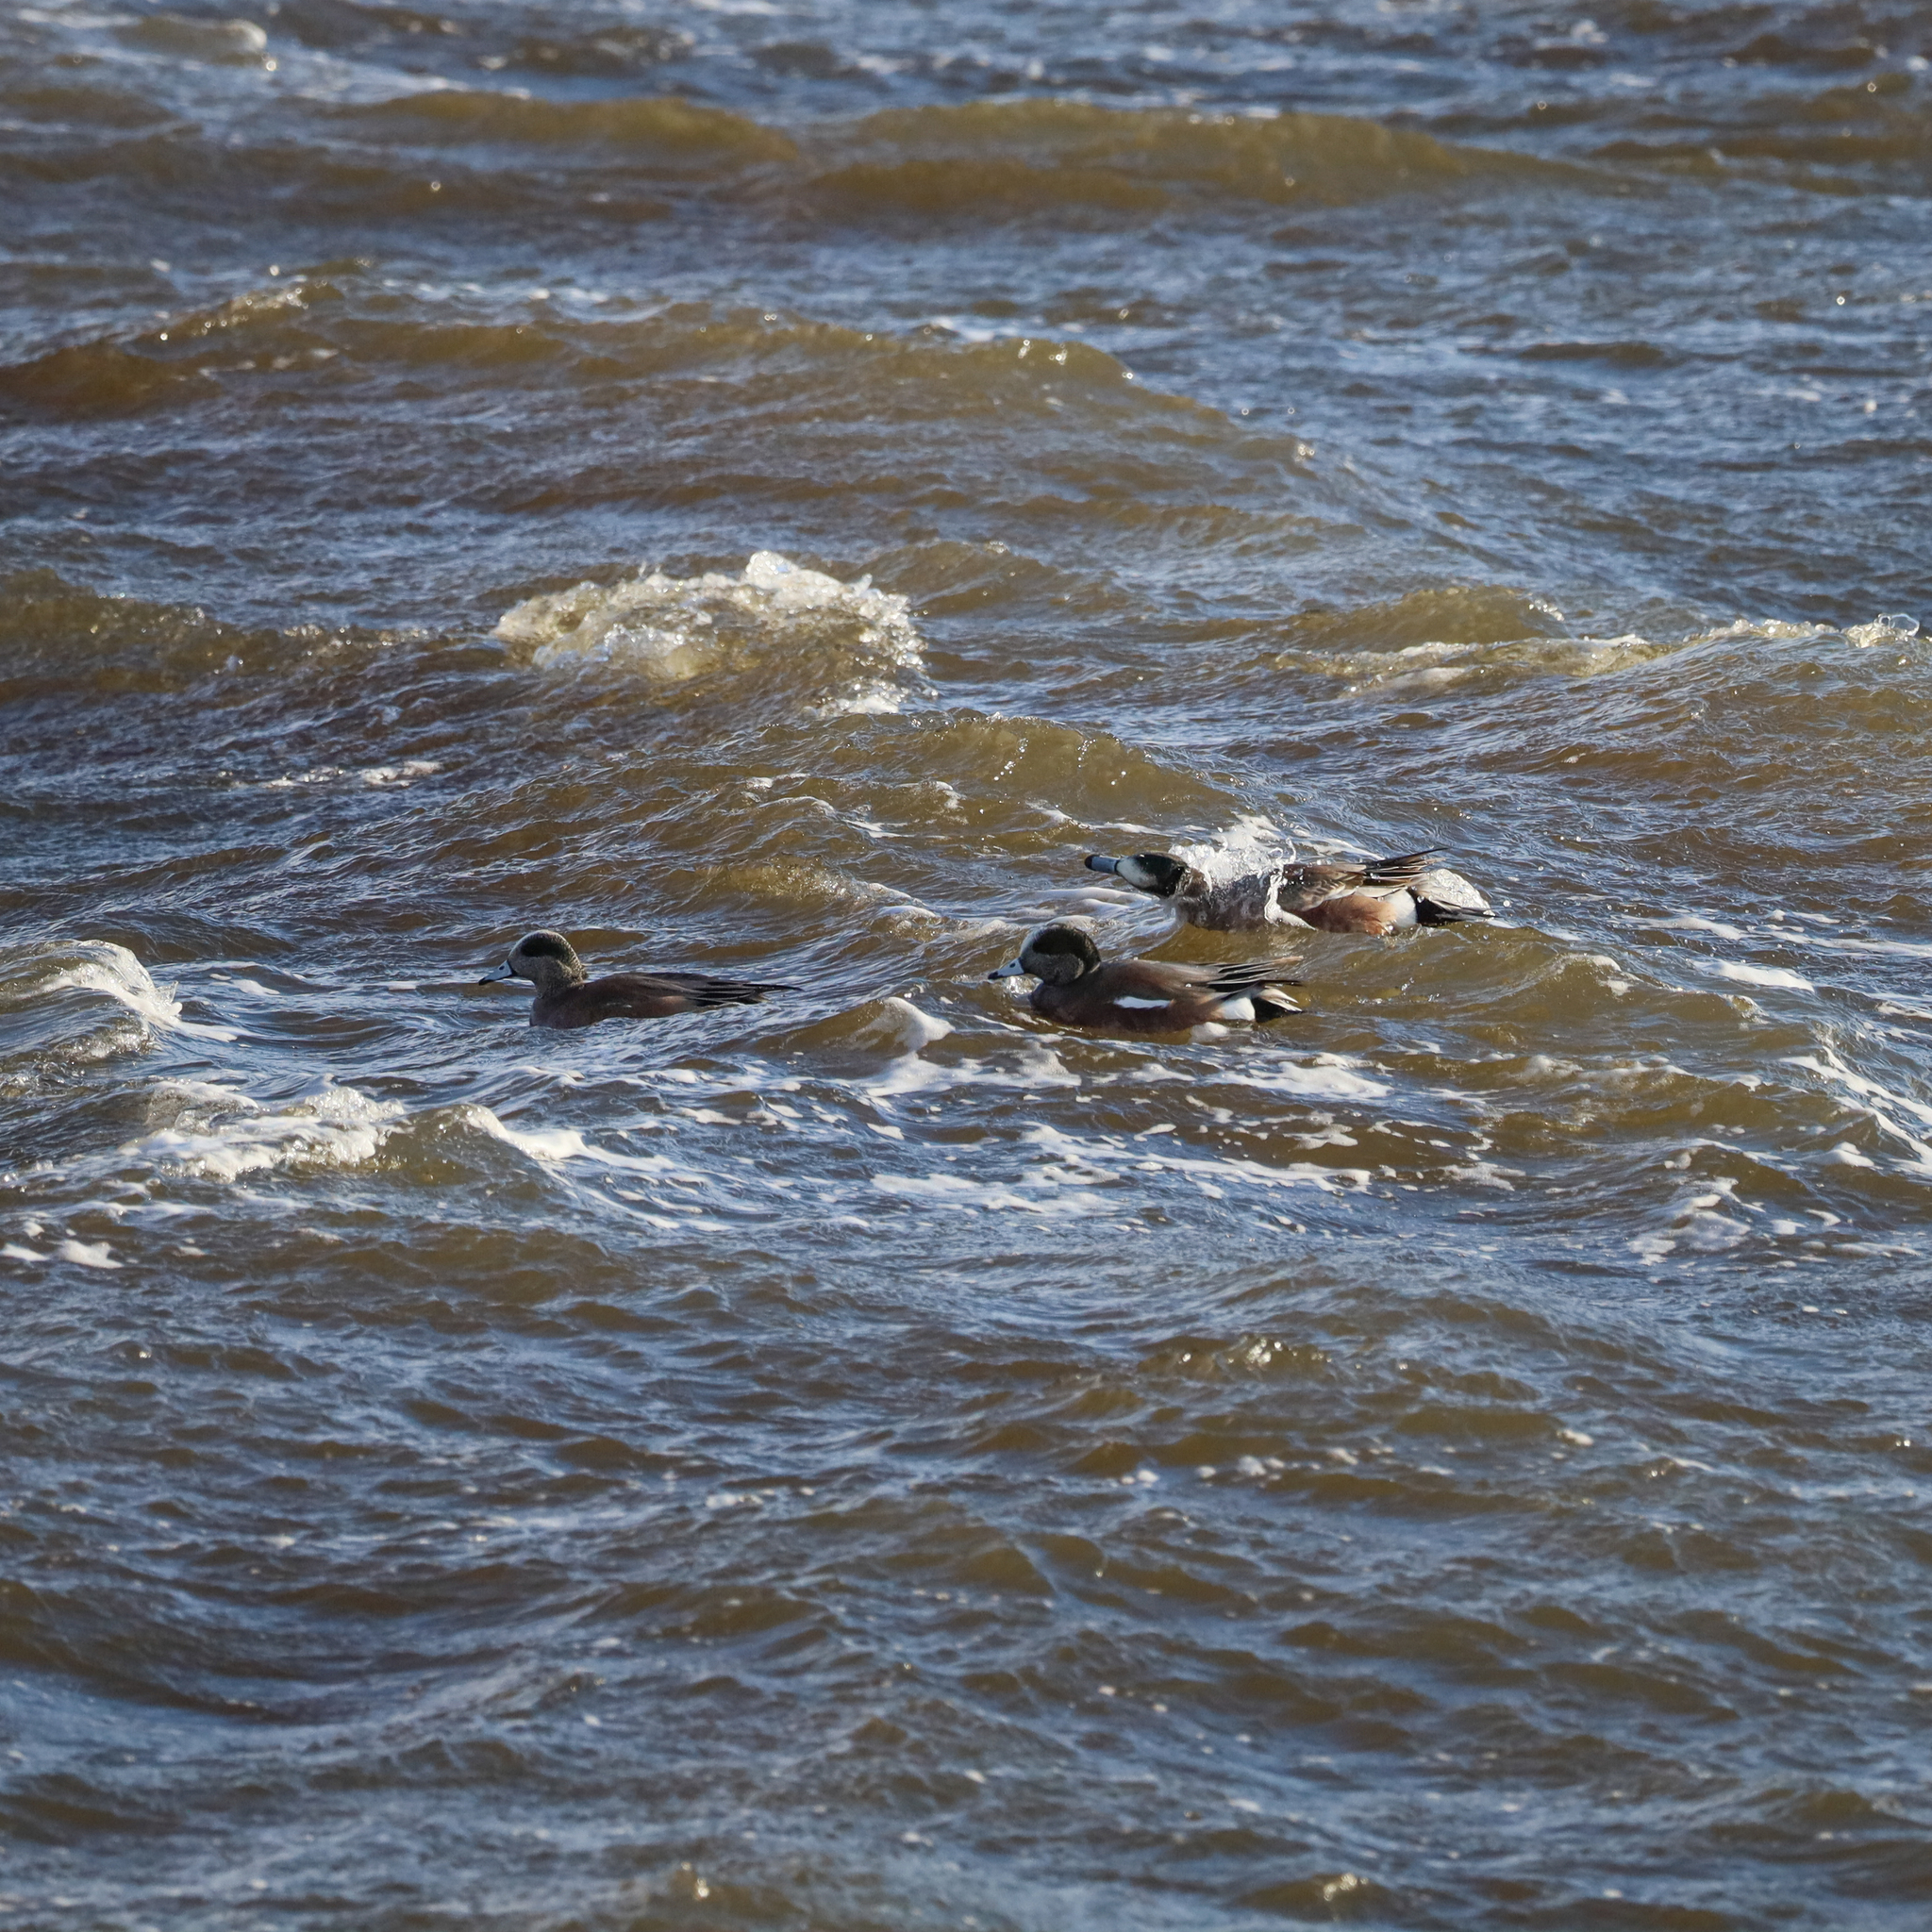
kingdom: Animalia
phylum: Chordata
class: Aves
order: Anseriformes
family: Anatidae
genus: Mareca
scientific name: Mareca americana
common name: American wigeon
